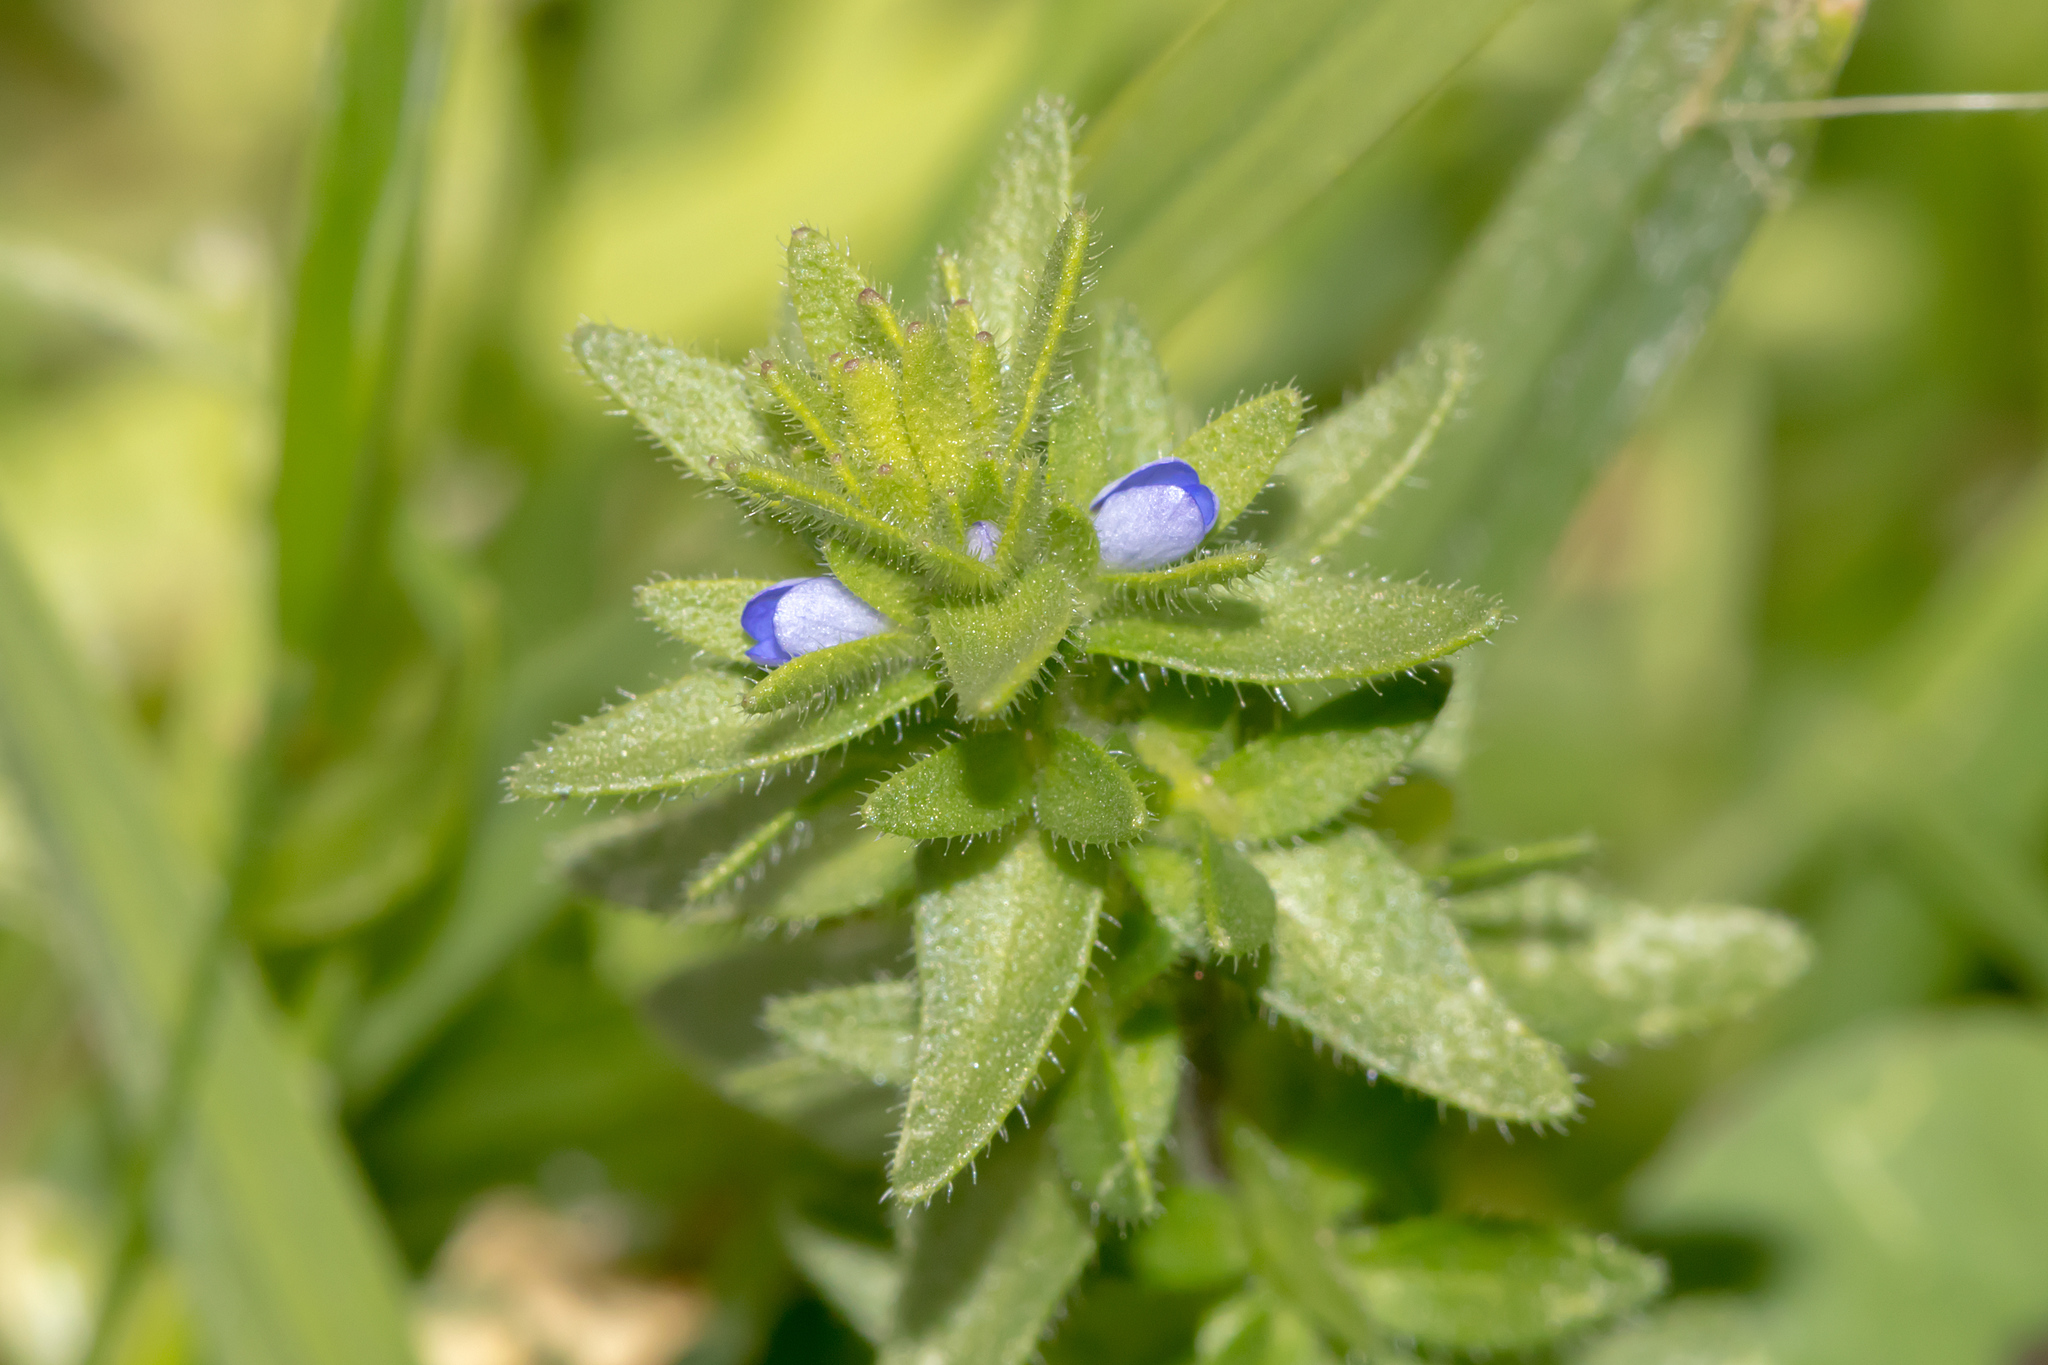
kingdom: Plantae
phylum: Tracheophyta
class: Magnoliopsida
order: Lamiales
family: Plantaginaceae
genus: Veronica
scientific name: Veronica arvensis
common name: Corn speedwell
